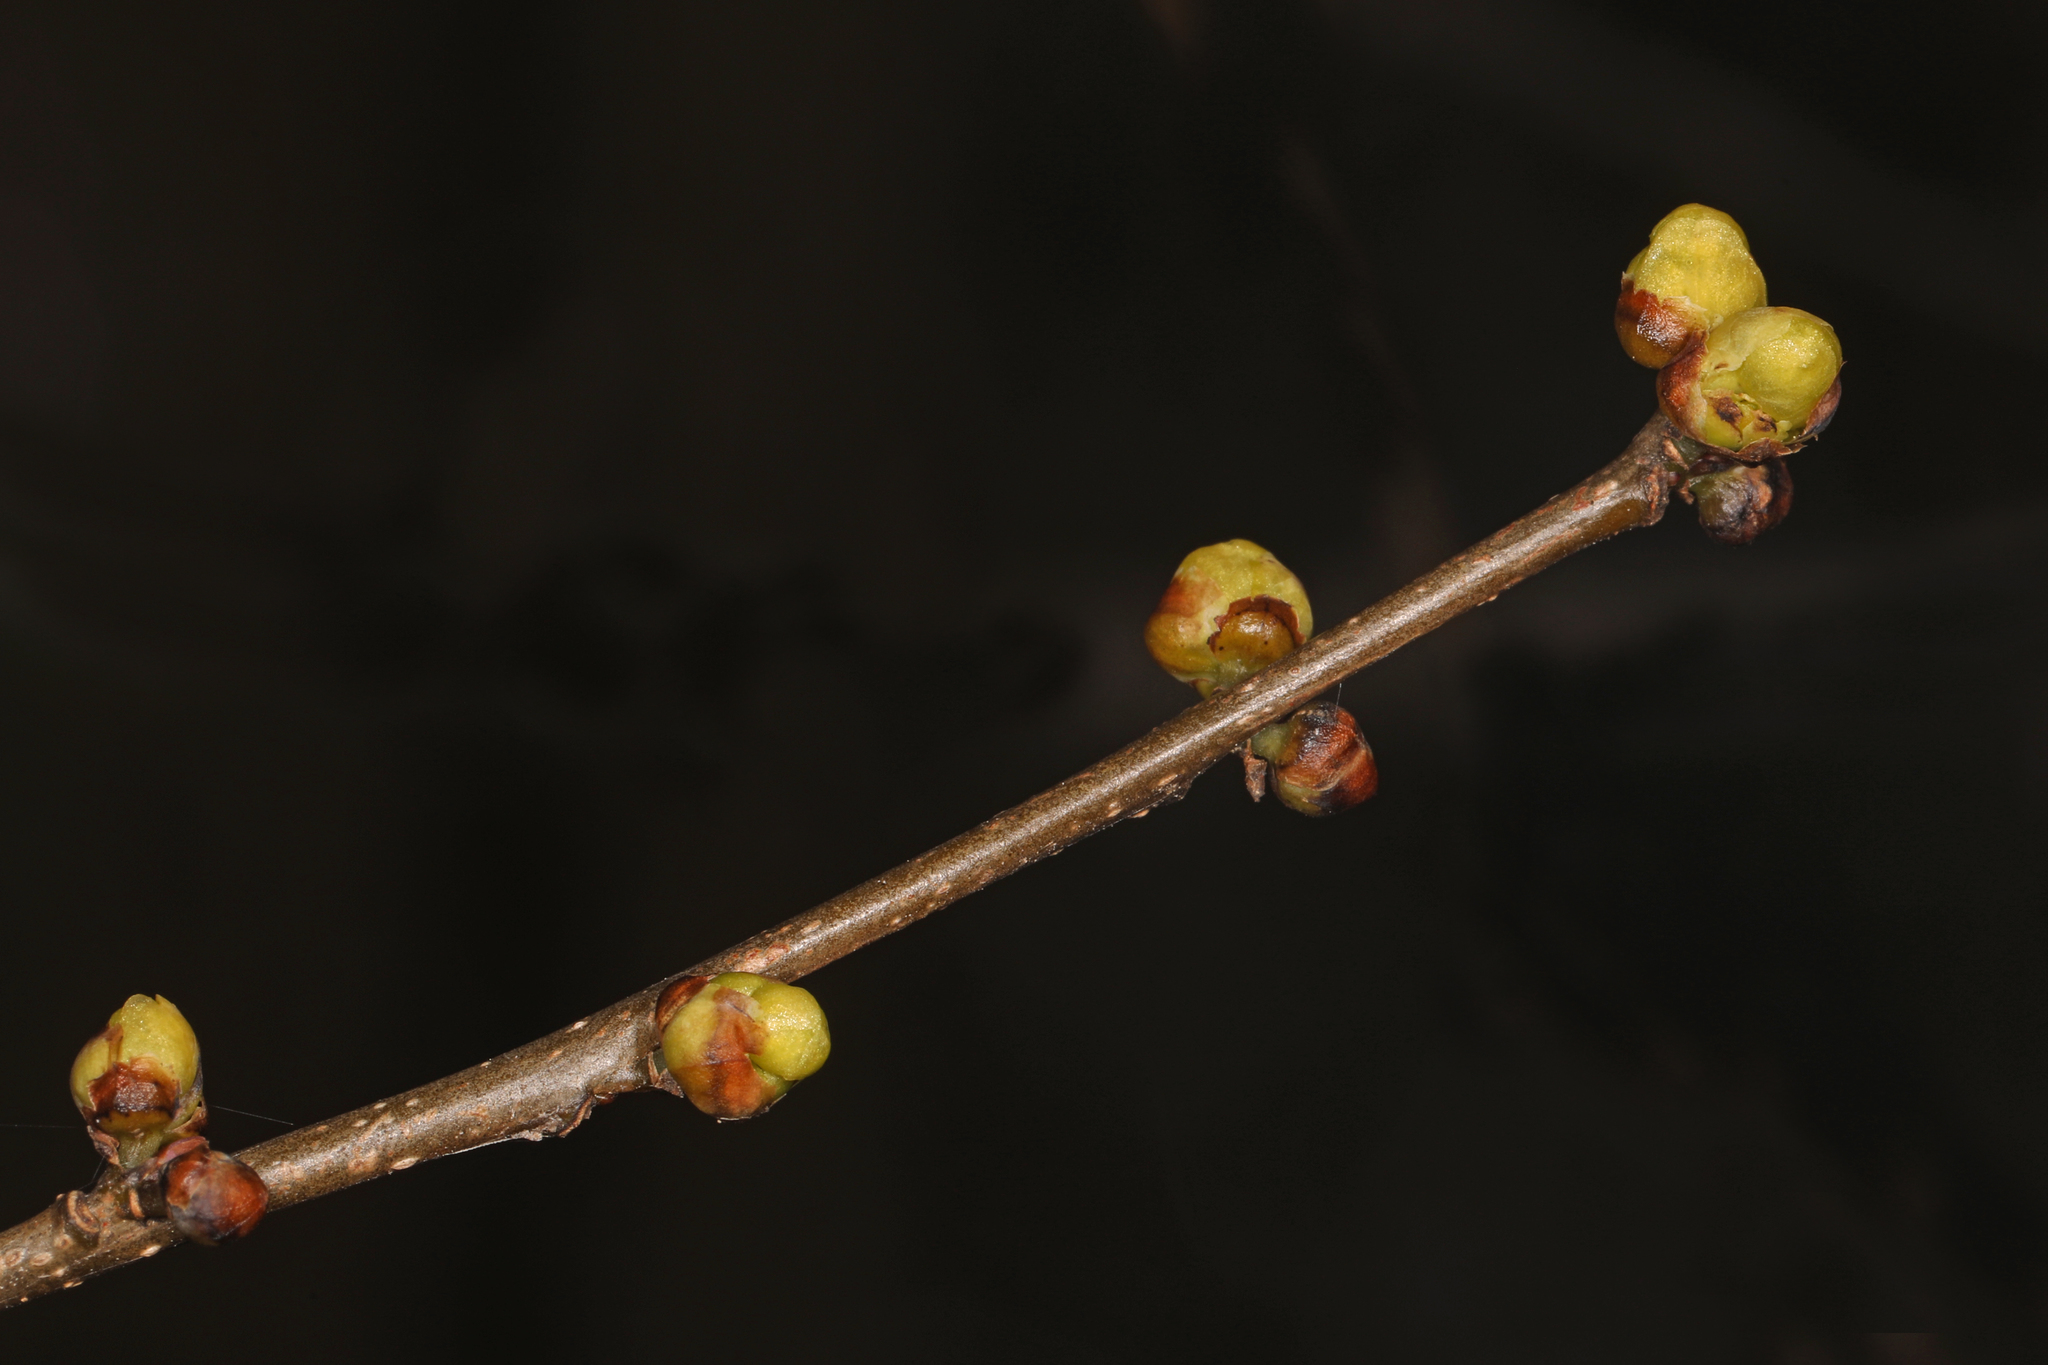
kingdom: Plantae
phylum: Tracheophyta
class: Magnoliopsida
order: Laurales
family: Lauraceae
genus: Lindera
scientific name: Lindera benzoin
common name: Spicebush
